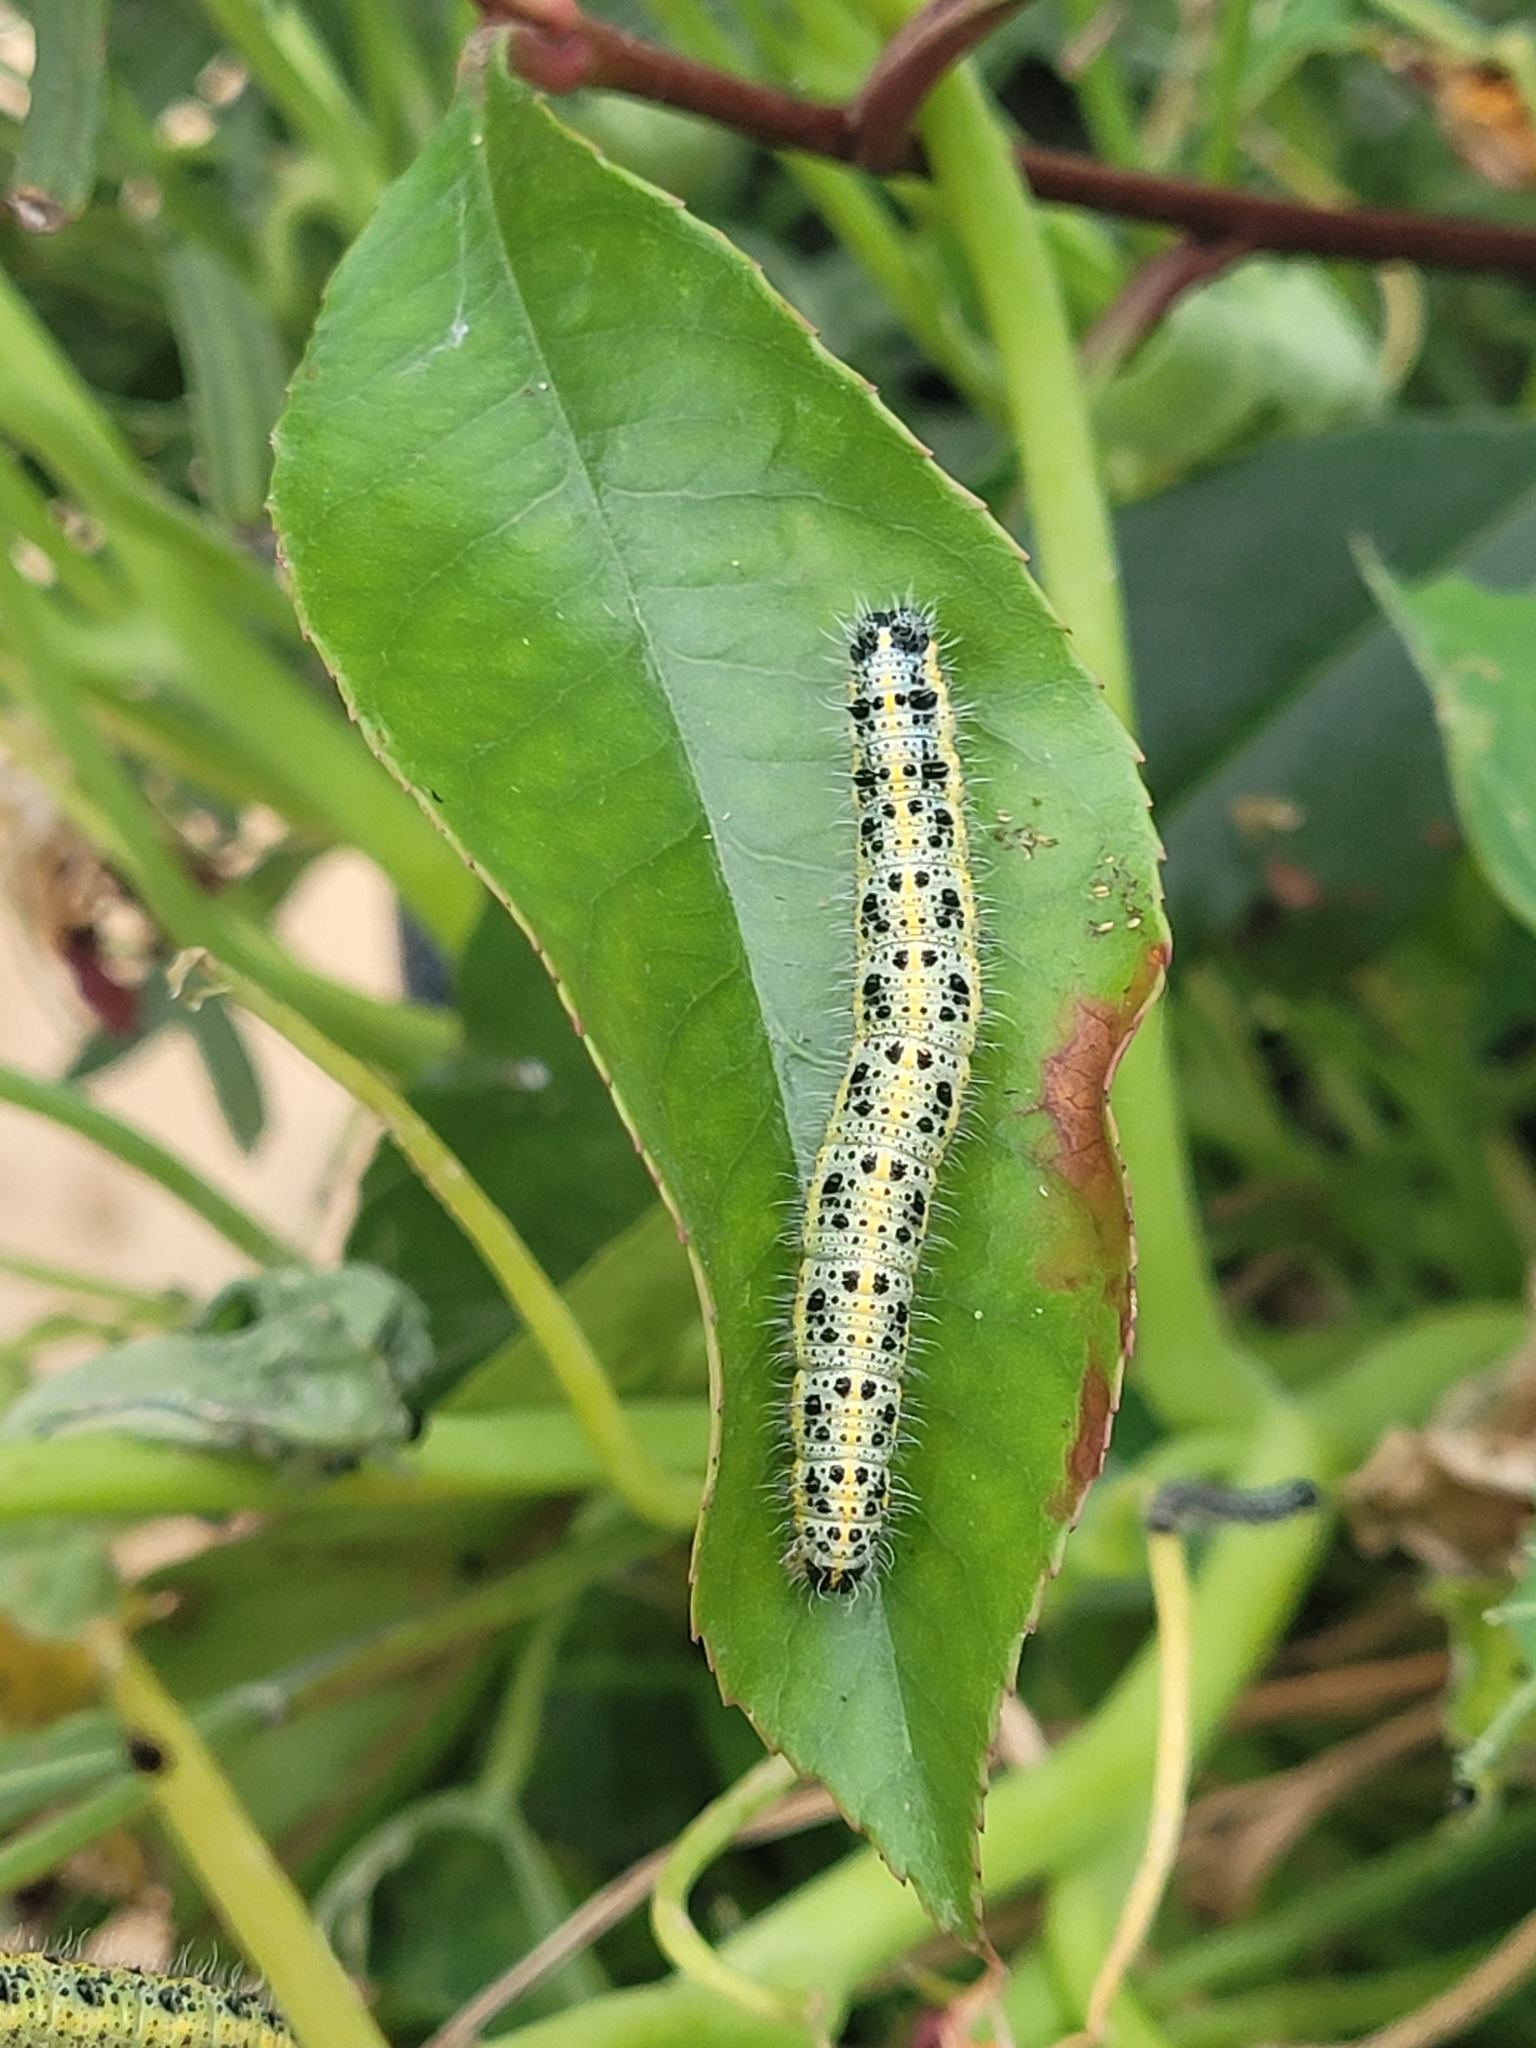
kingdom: Animalia
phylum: Arthropoda
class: Insecta
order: Lepidoptera
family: Pieridae
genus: Pieris
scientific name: Pieris brassicae
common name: Large white
